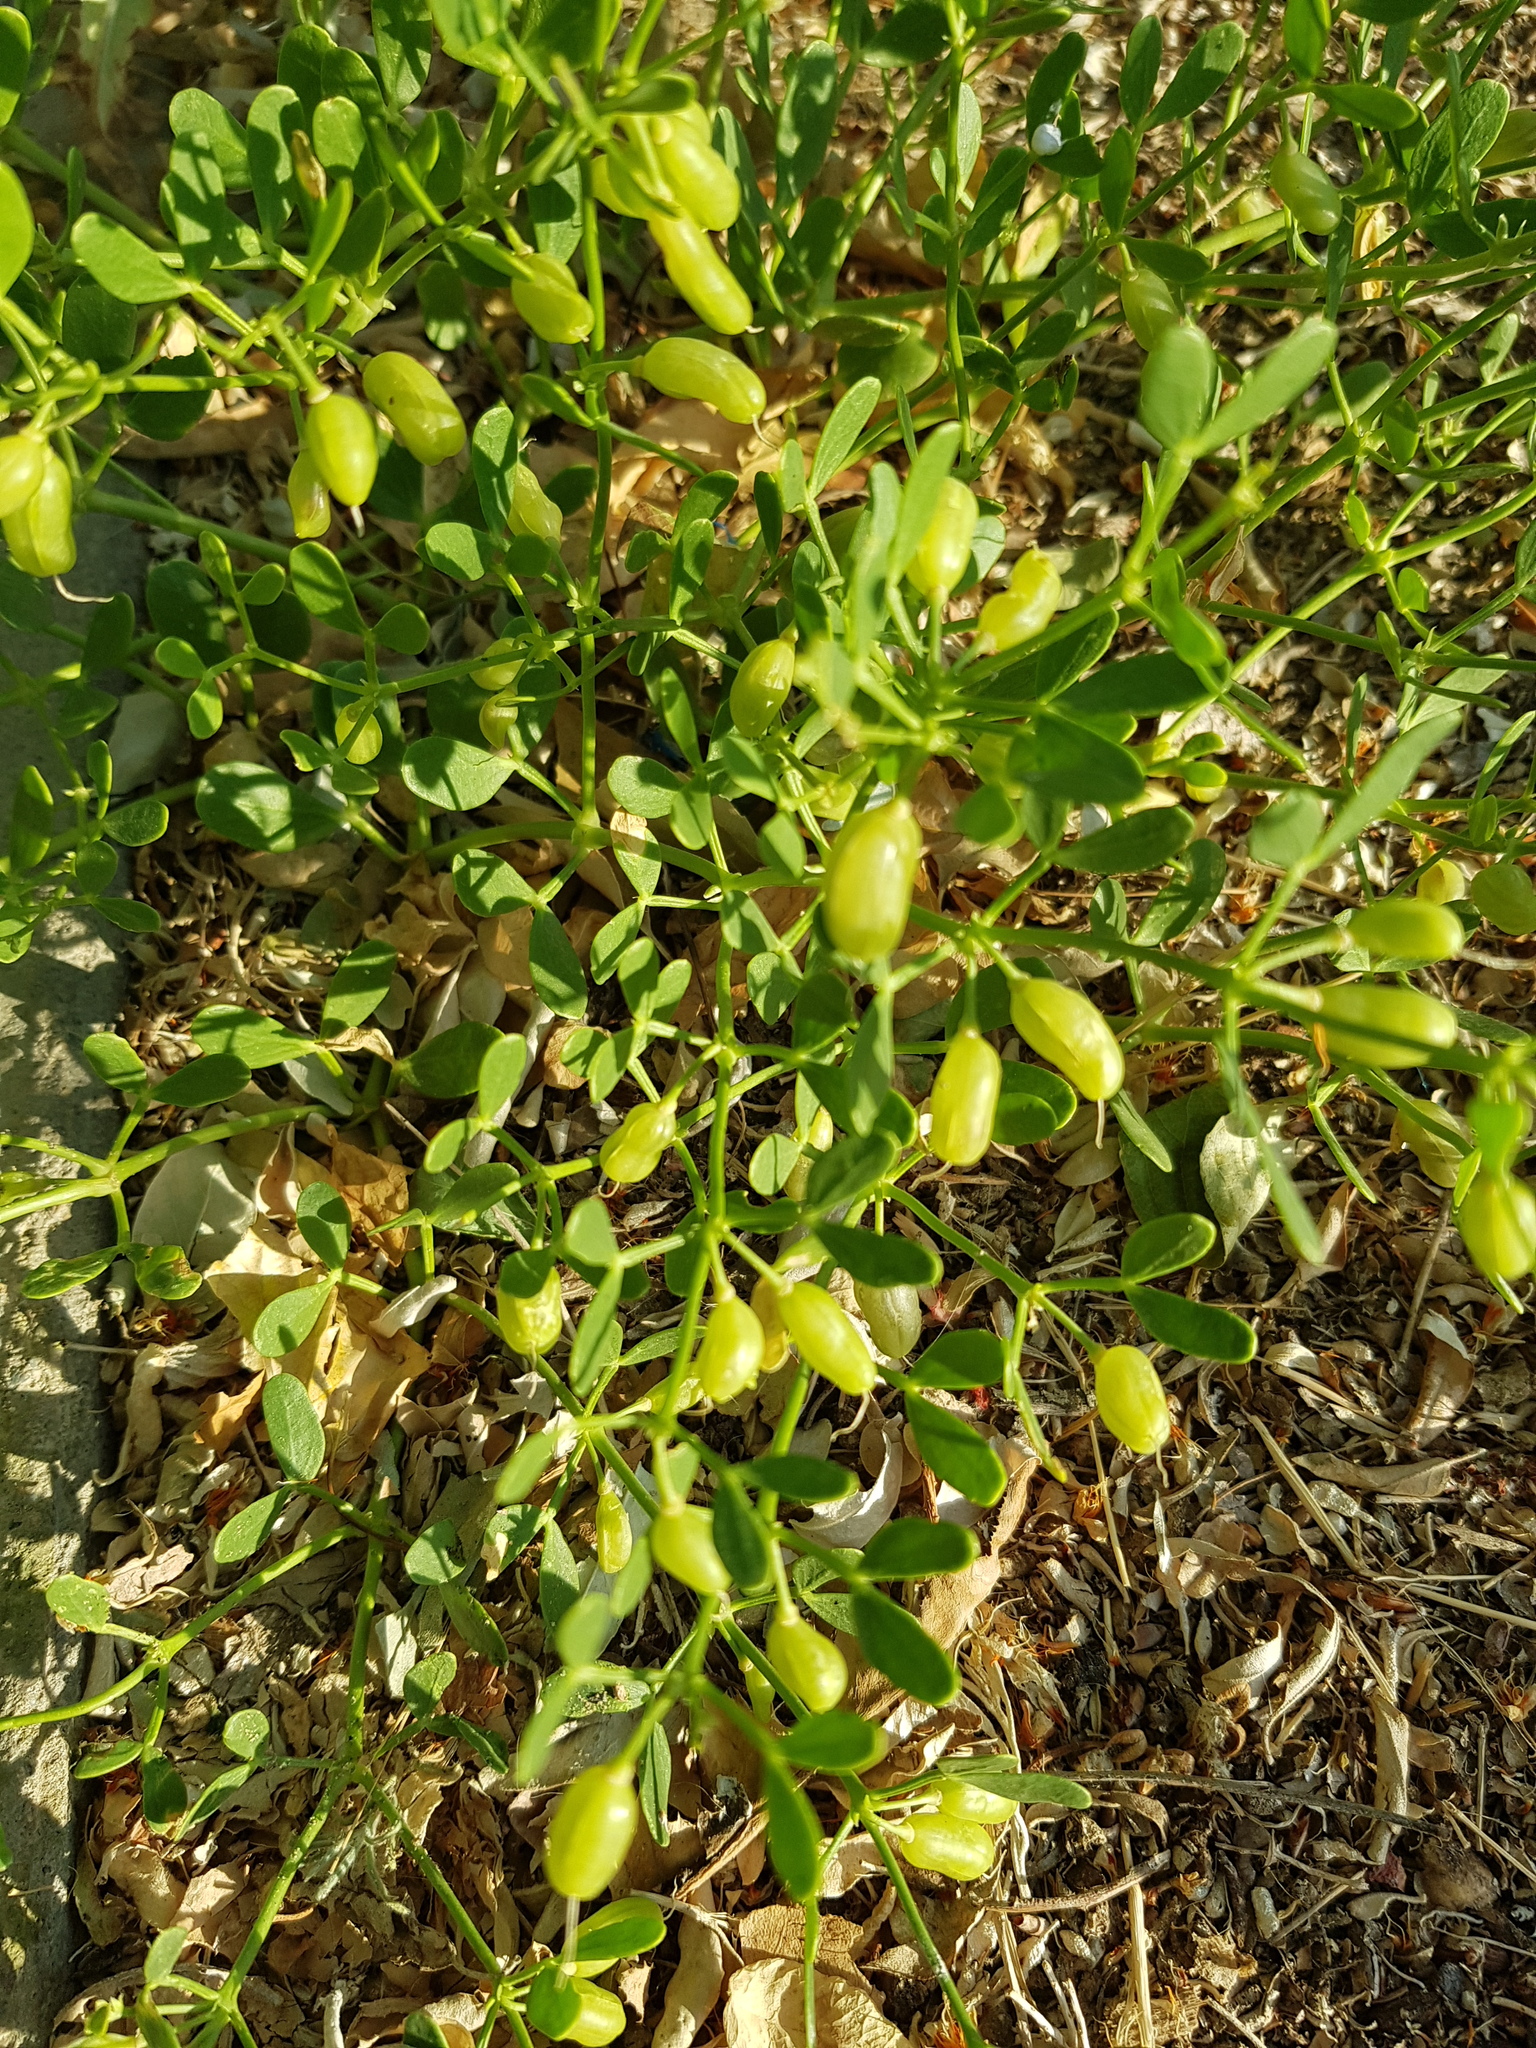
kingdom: Plantae
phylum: Tracheophyta
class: Magnoliopsida
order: Zygophyllales
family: Zygophyllaceae
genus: Zygophyllum
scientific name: Zygophyllum brachypterum
